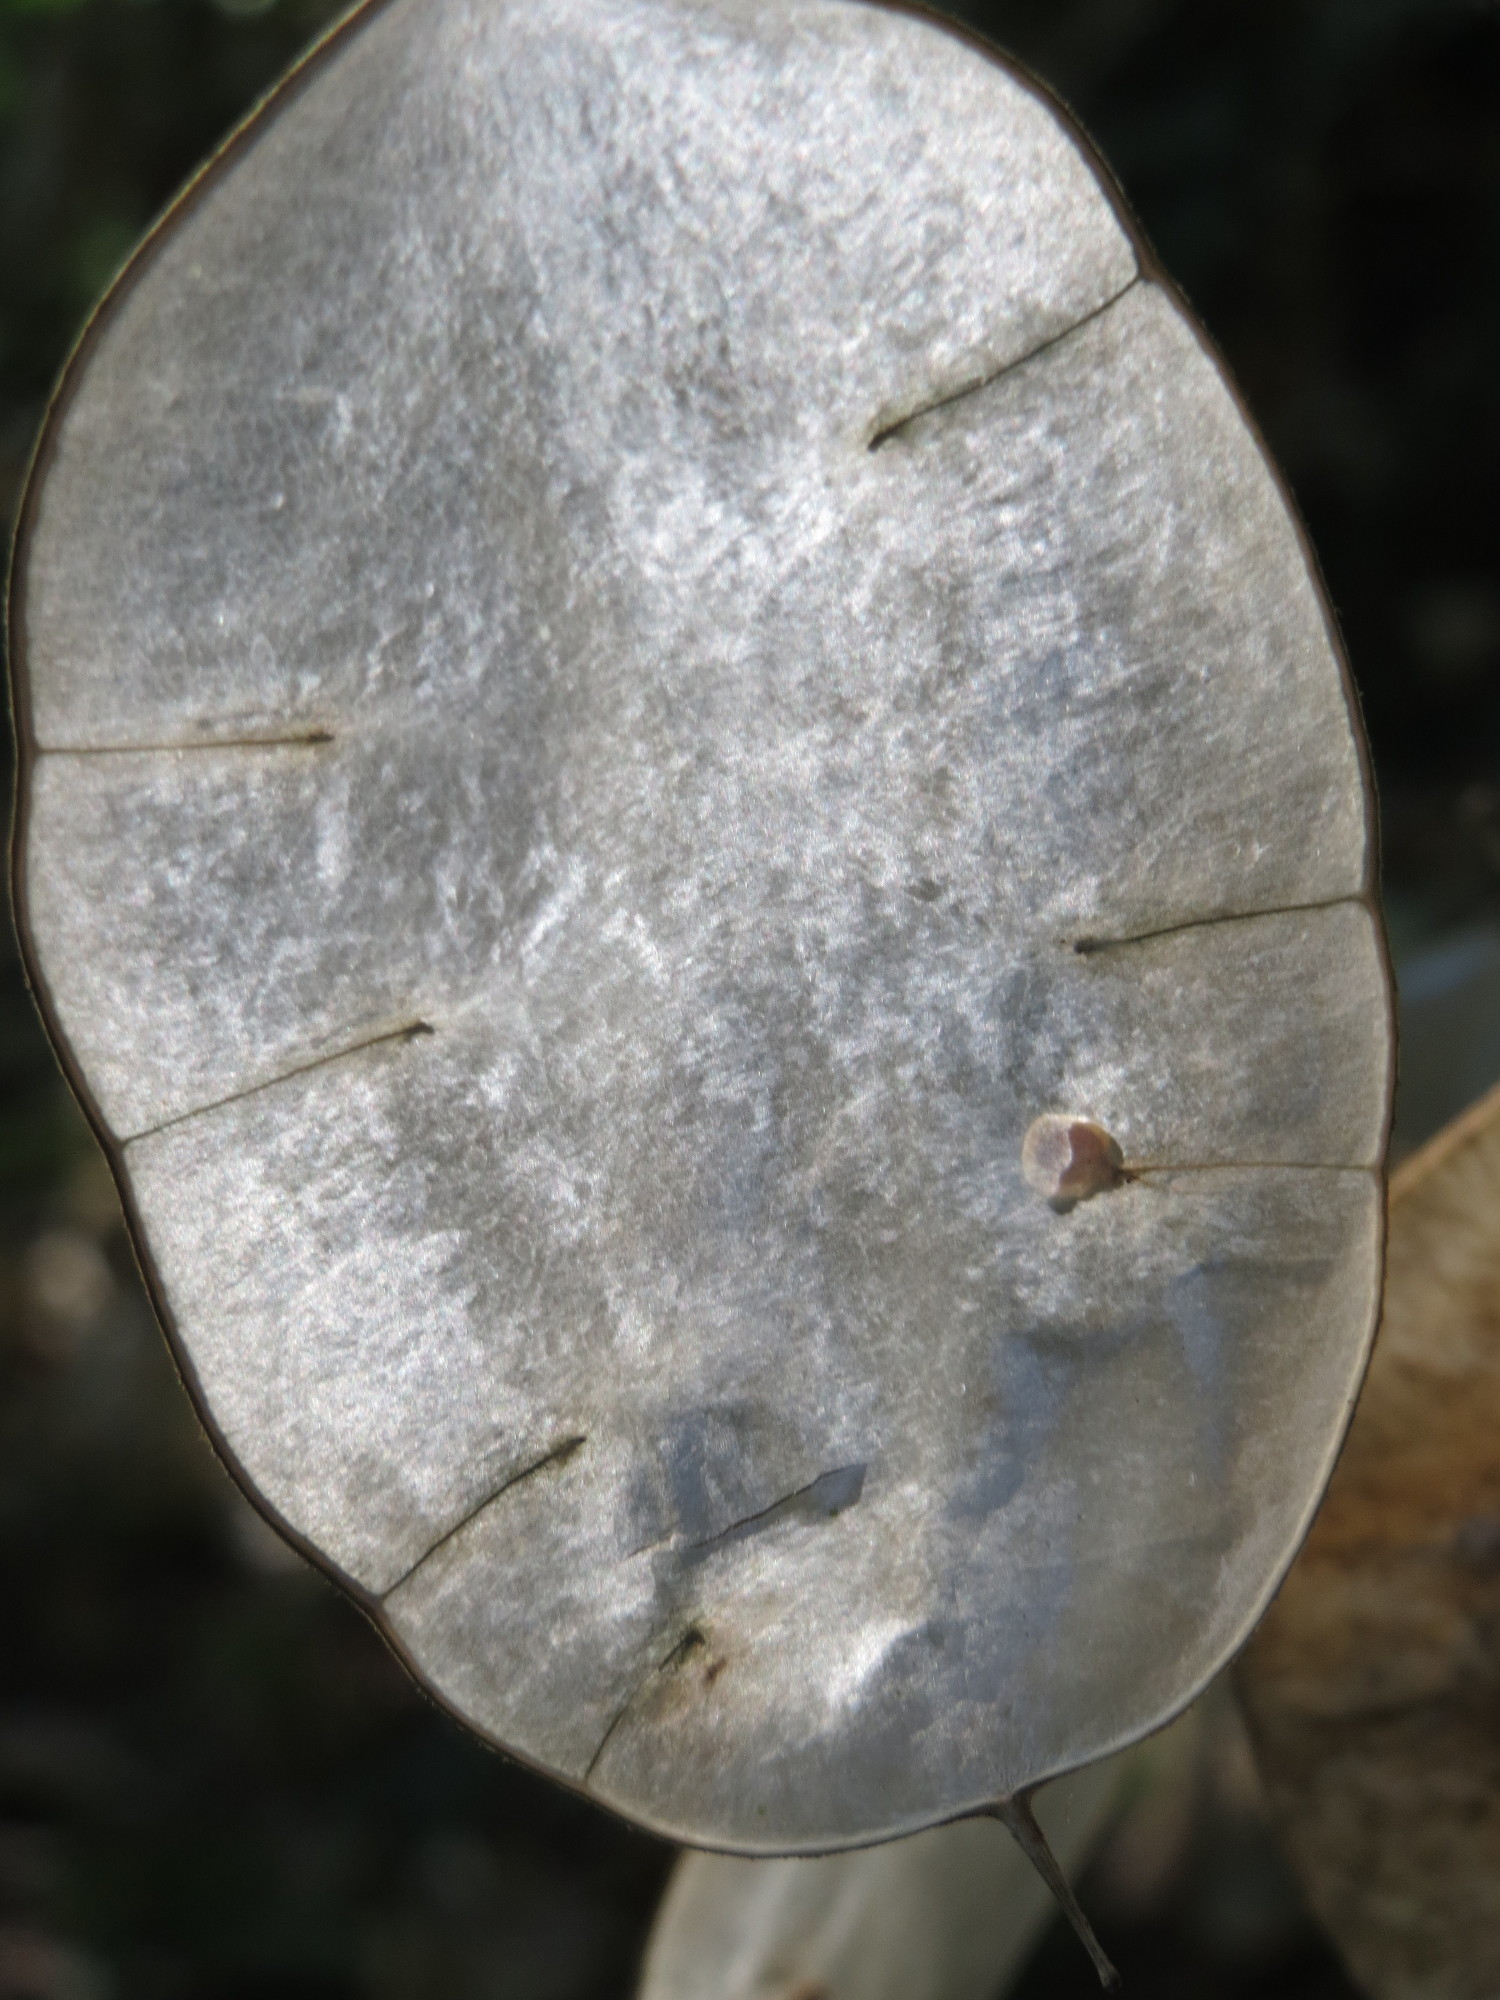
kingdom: Plantae
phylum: Tracheophyta
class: Magnoliopsida
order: Brassicales
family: Brassicaceae
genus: Lunaria
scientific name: Lunaria annua
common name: Honesty
